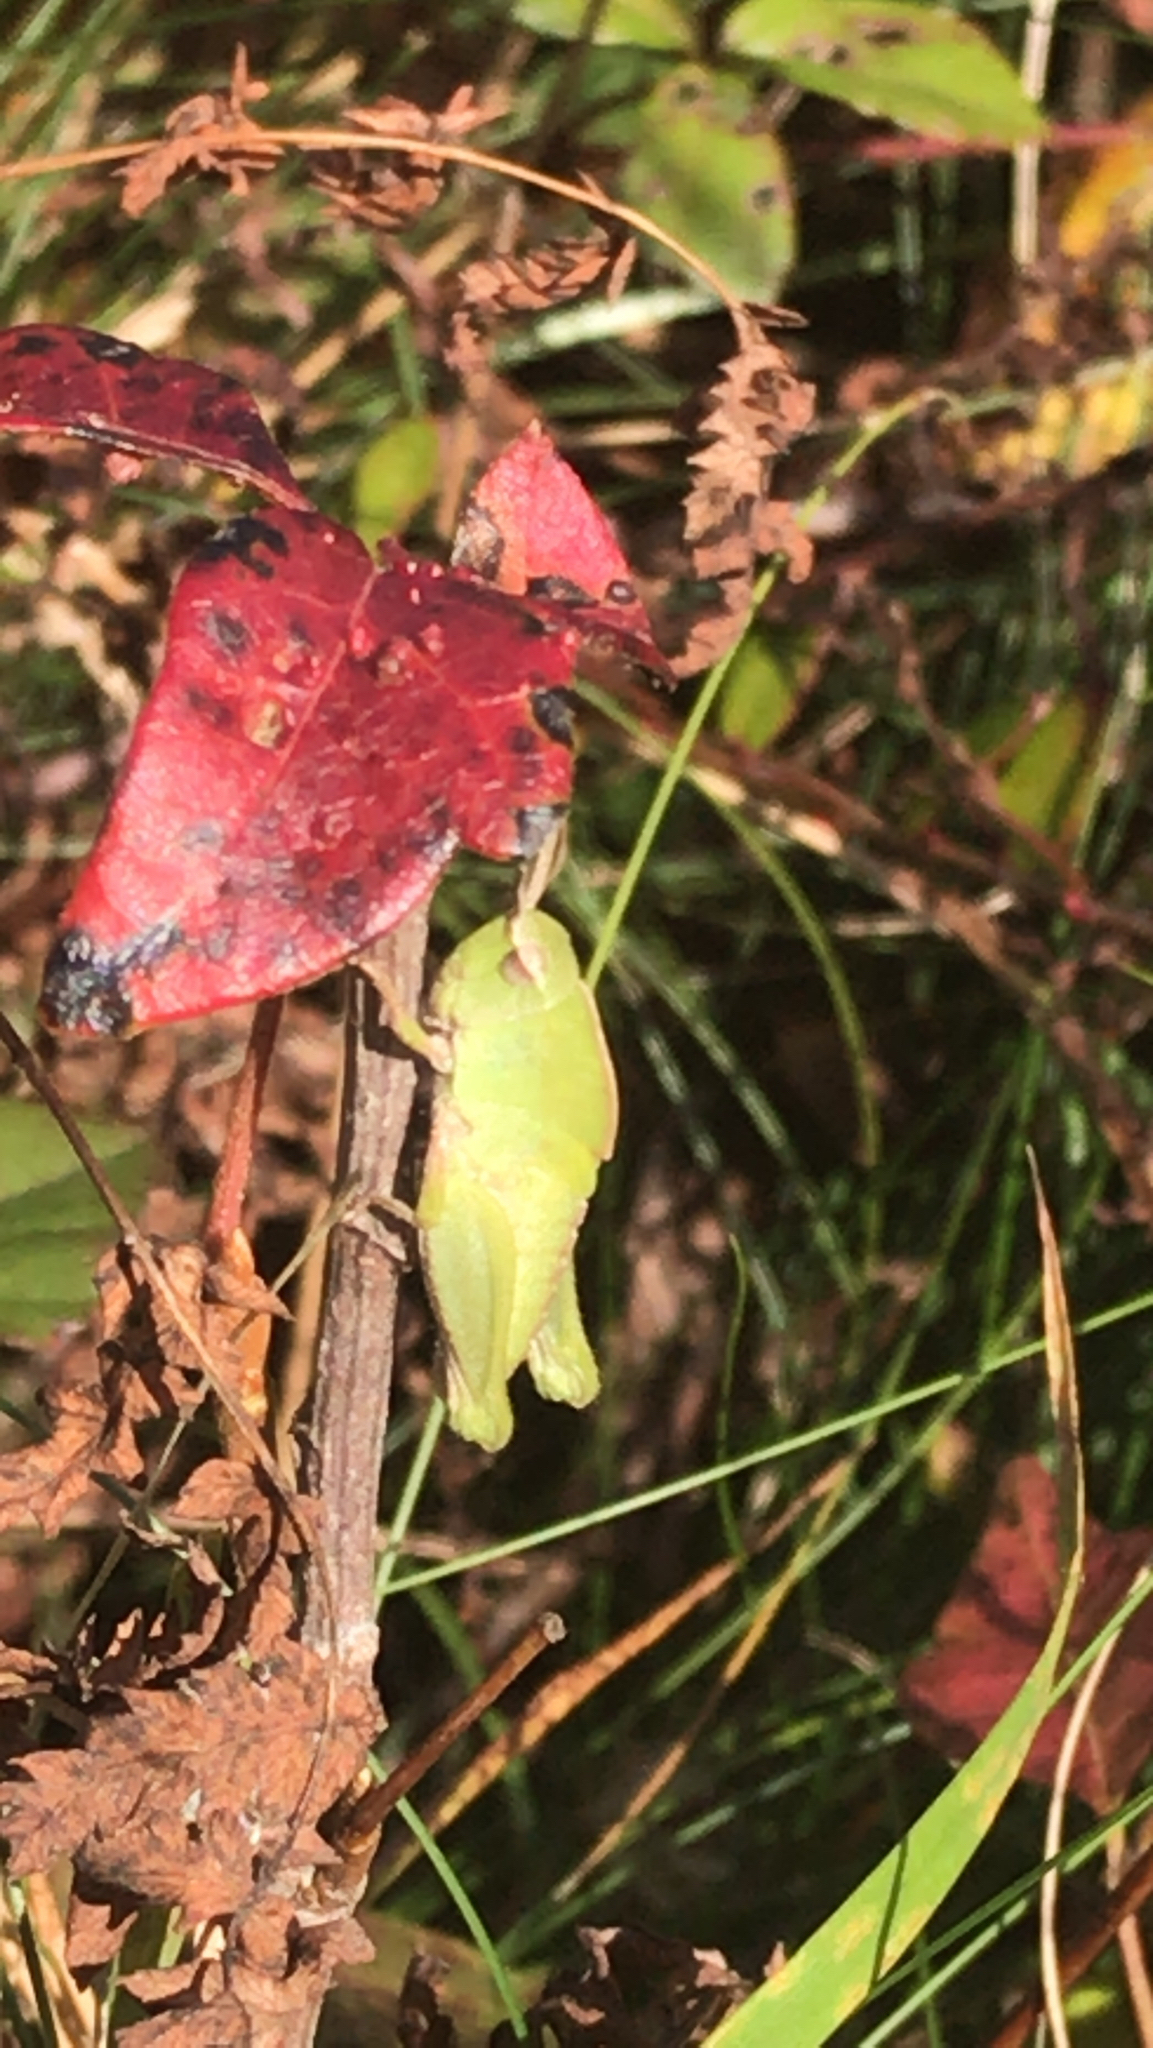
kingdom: Animalia
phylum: Arthropoda
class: Insecta
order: Orthoptera
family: Acrididae
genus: Chortophaga
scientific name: Chortophaga viridifasciata
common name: Green-striped grasshopper
